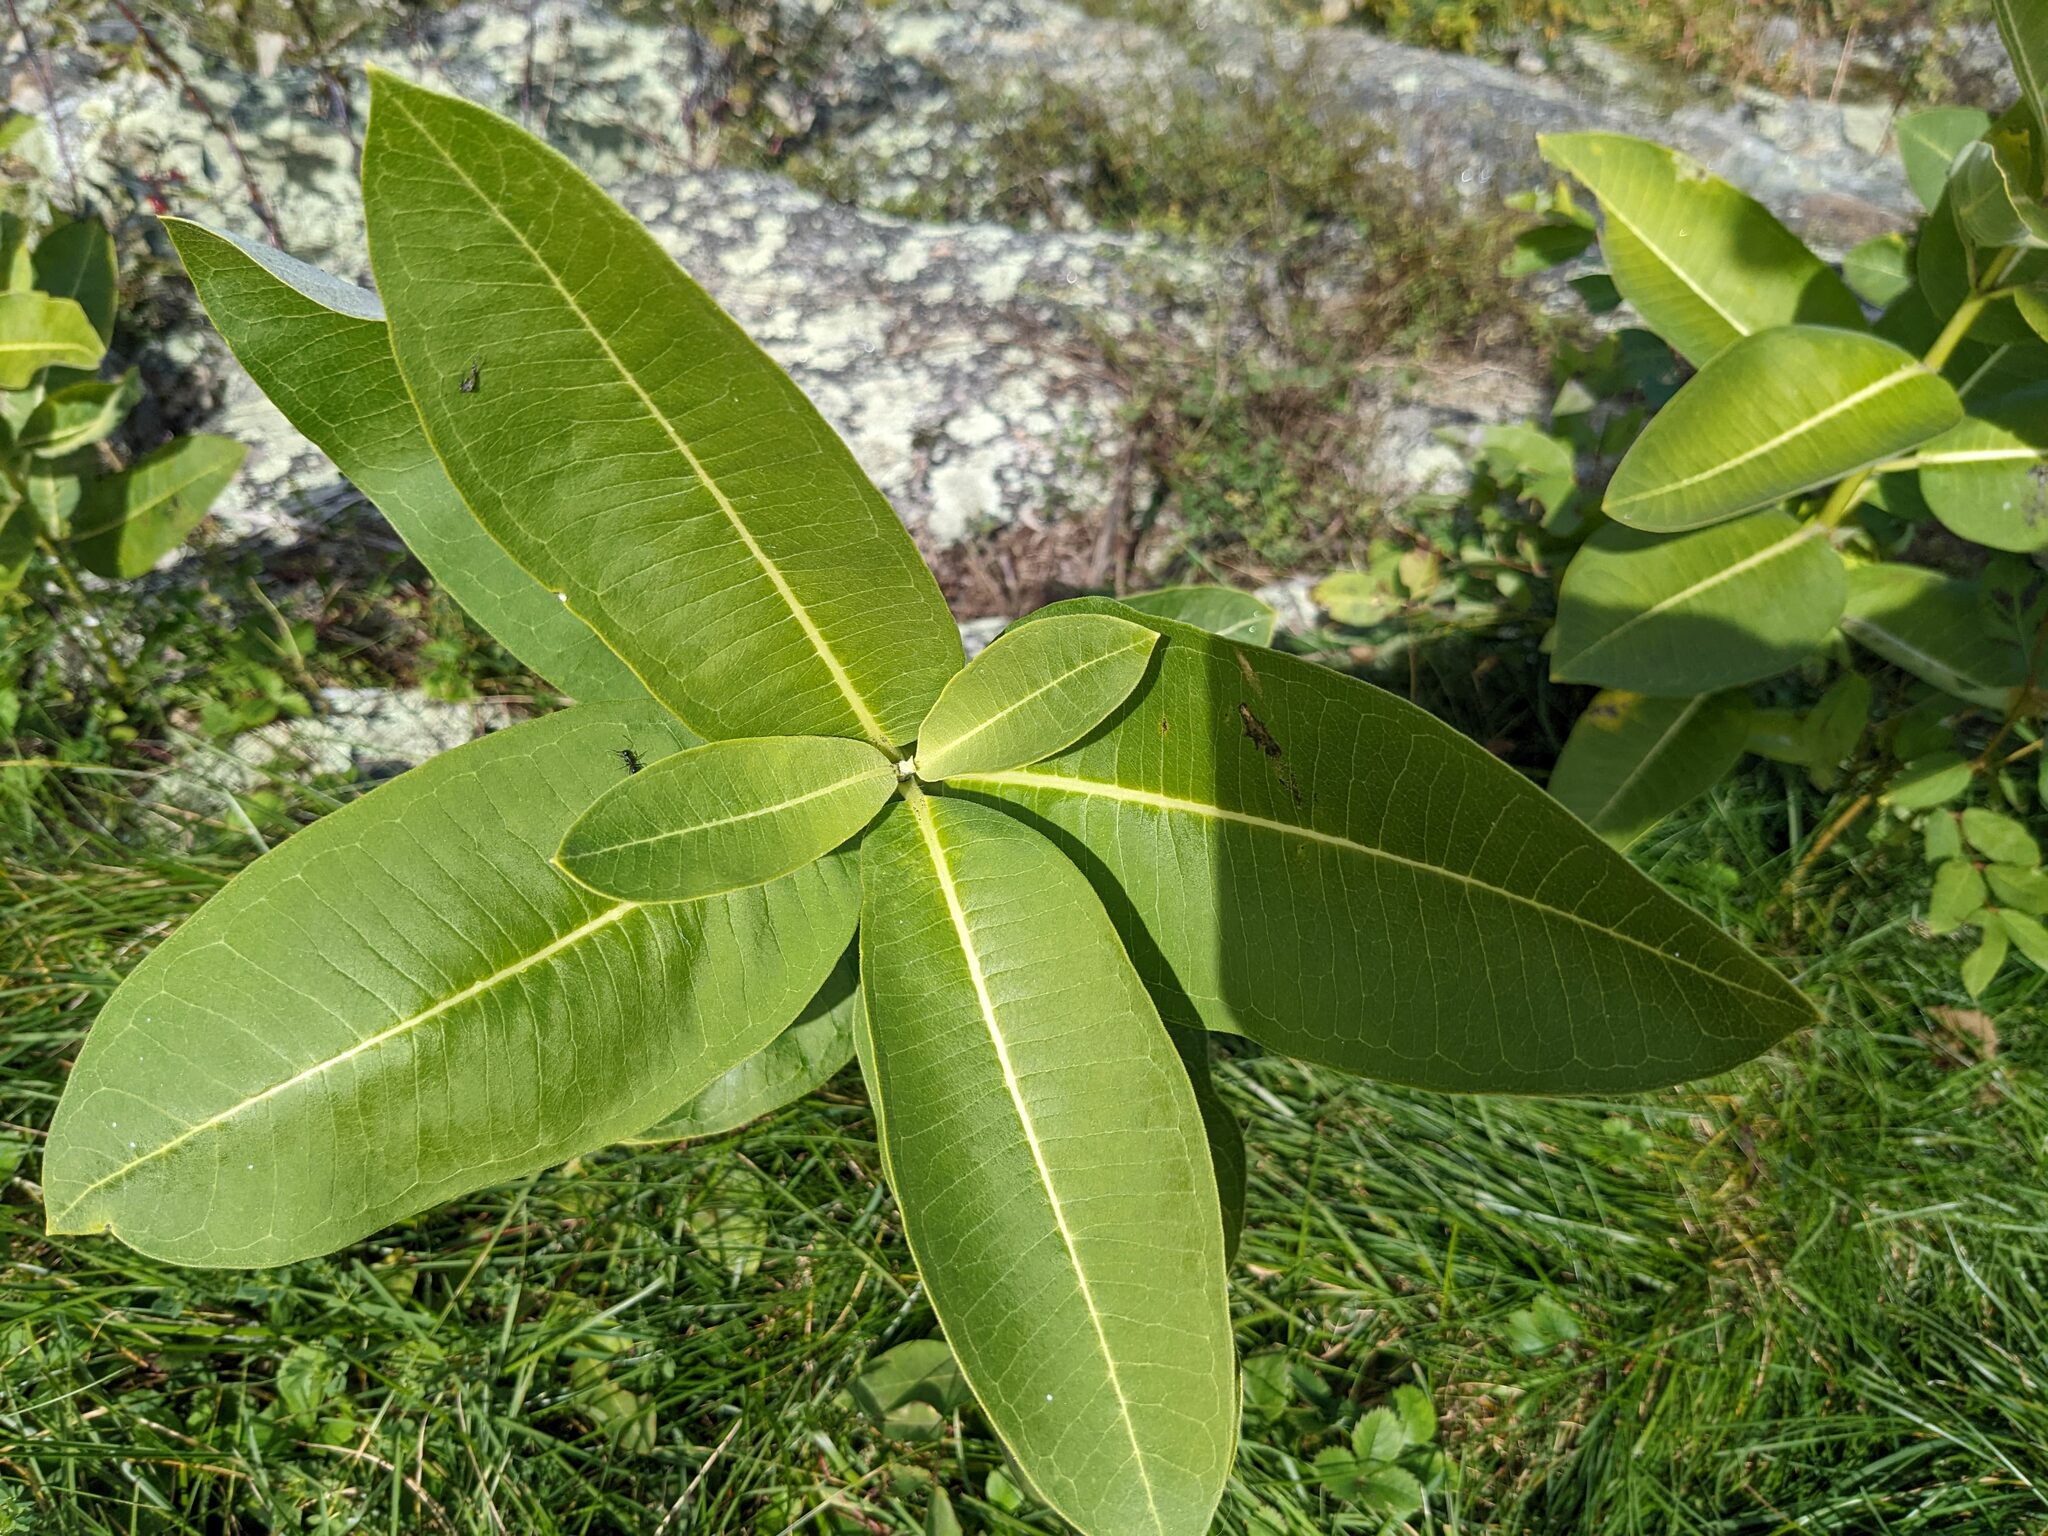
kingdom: Plantae
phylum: Tracheophyta
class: Magnoliopsida
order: Gentianales
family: Apocynaceae
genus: Asclepias
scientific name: Asclepias syriaca
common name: Common milkweed
